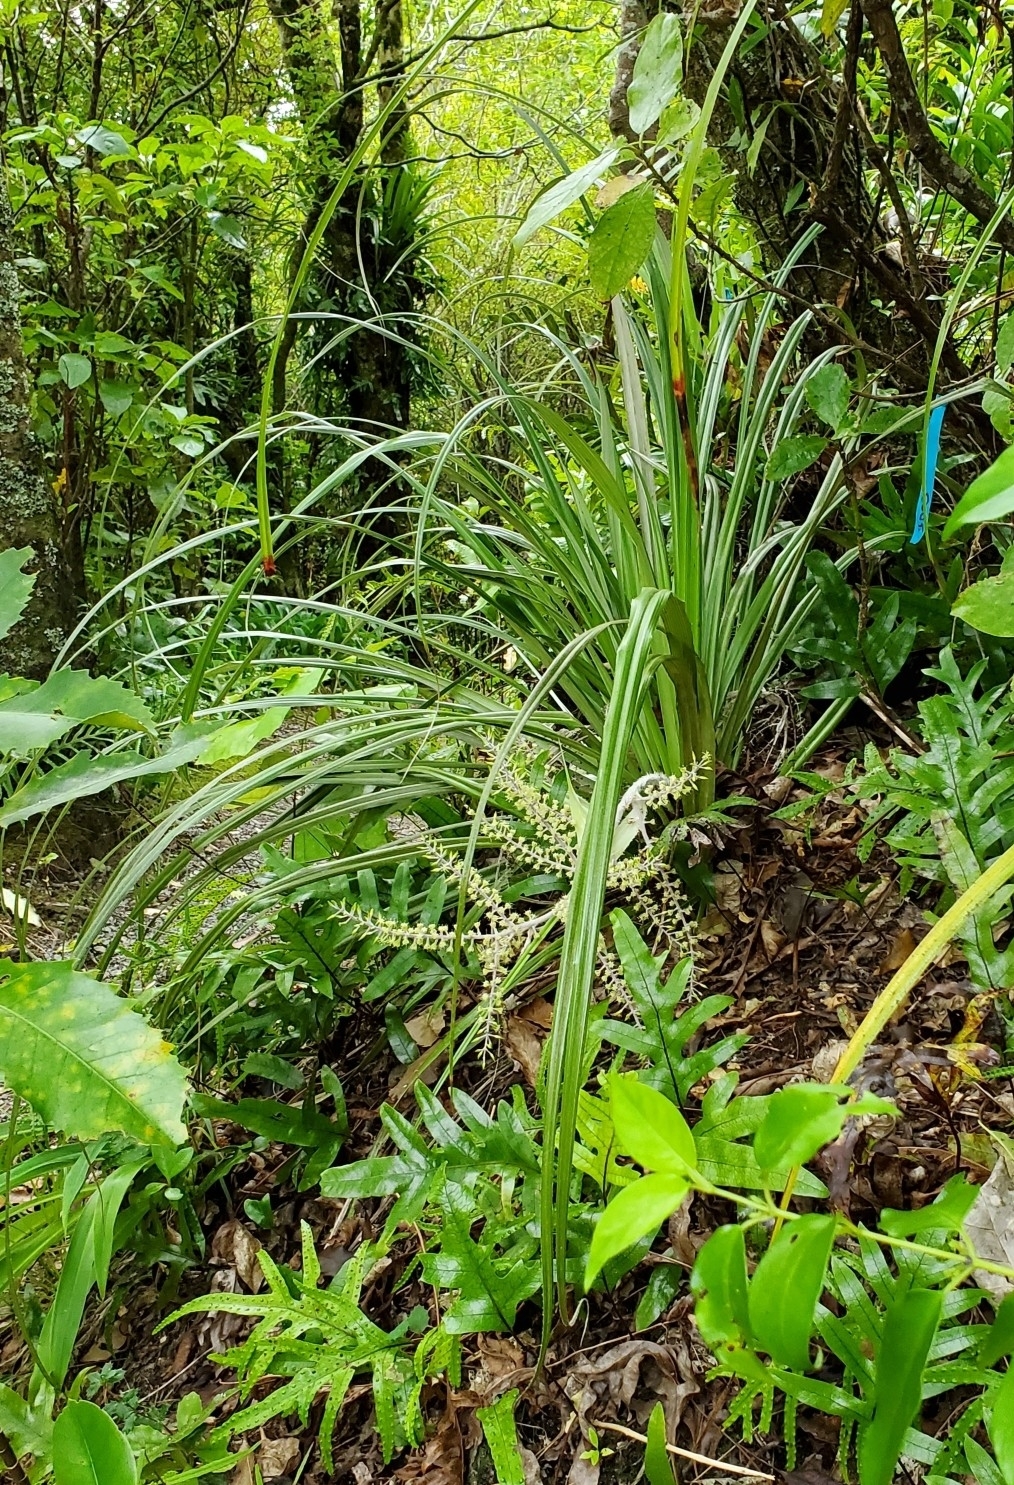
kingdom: Plantae
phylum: Tracheophyta
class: Liliopsida
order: Asparagales
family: Asteliaceae
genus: Astelia
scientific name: Astelia fragrans
